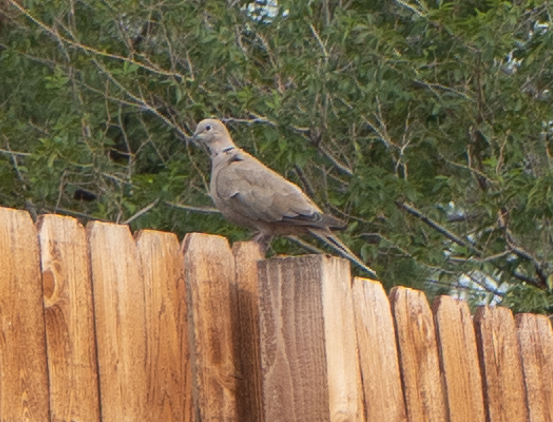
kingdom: Animalia
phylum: Chordata
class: Aves
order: Columbiformes
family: Columbidae
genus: Streptopelia
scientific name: Streptopelia decaocto
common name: Eurasian collared dove
